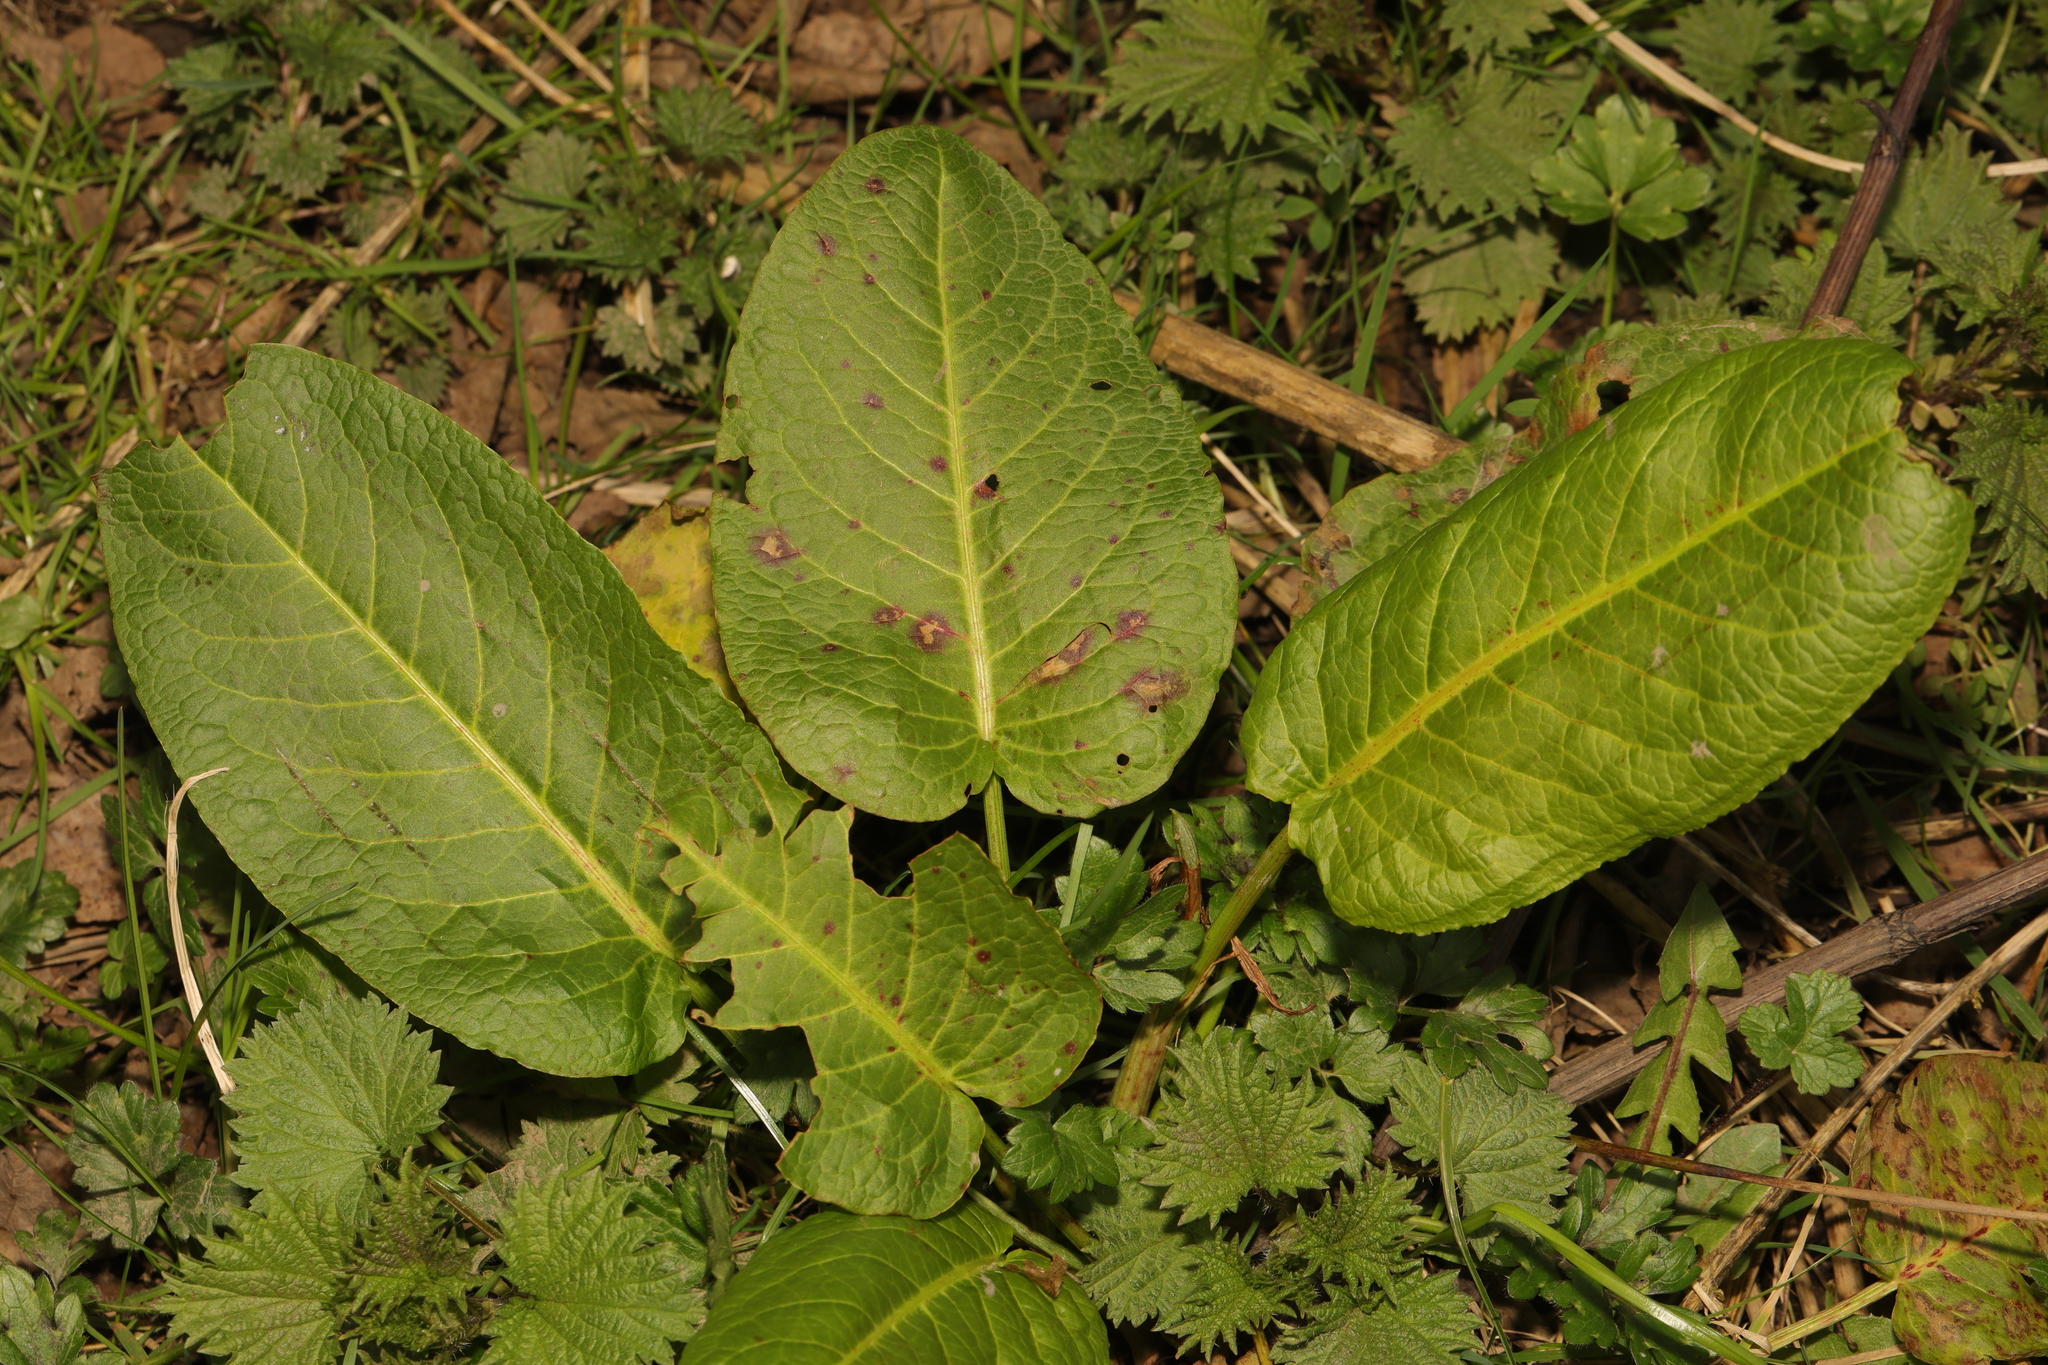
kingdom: Plantae
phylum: Tracheophyta
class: Magnoliopsida
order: Caryophyllales
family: Polygonaceae
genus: Rumex
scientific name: Rumex obtusifolius
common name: Bitter dock
